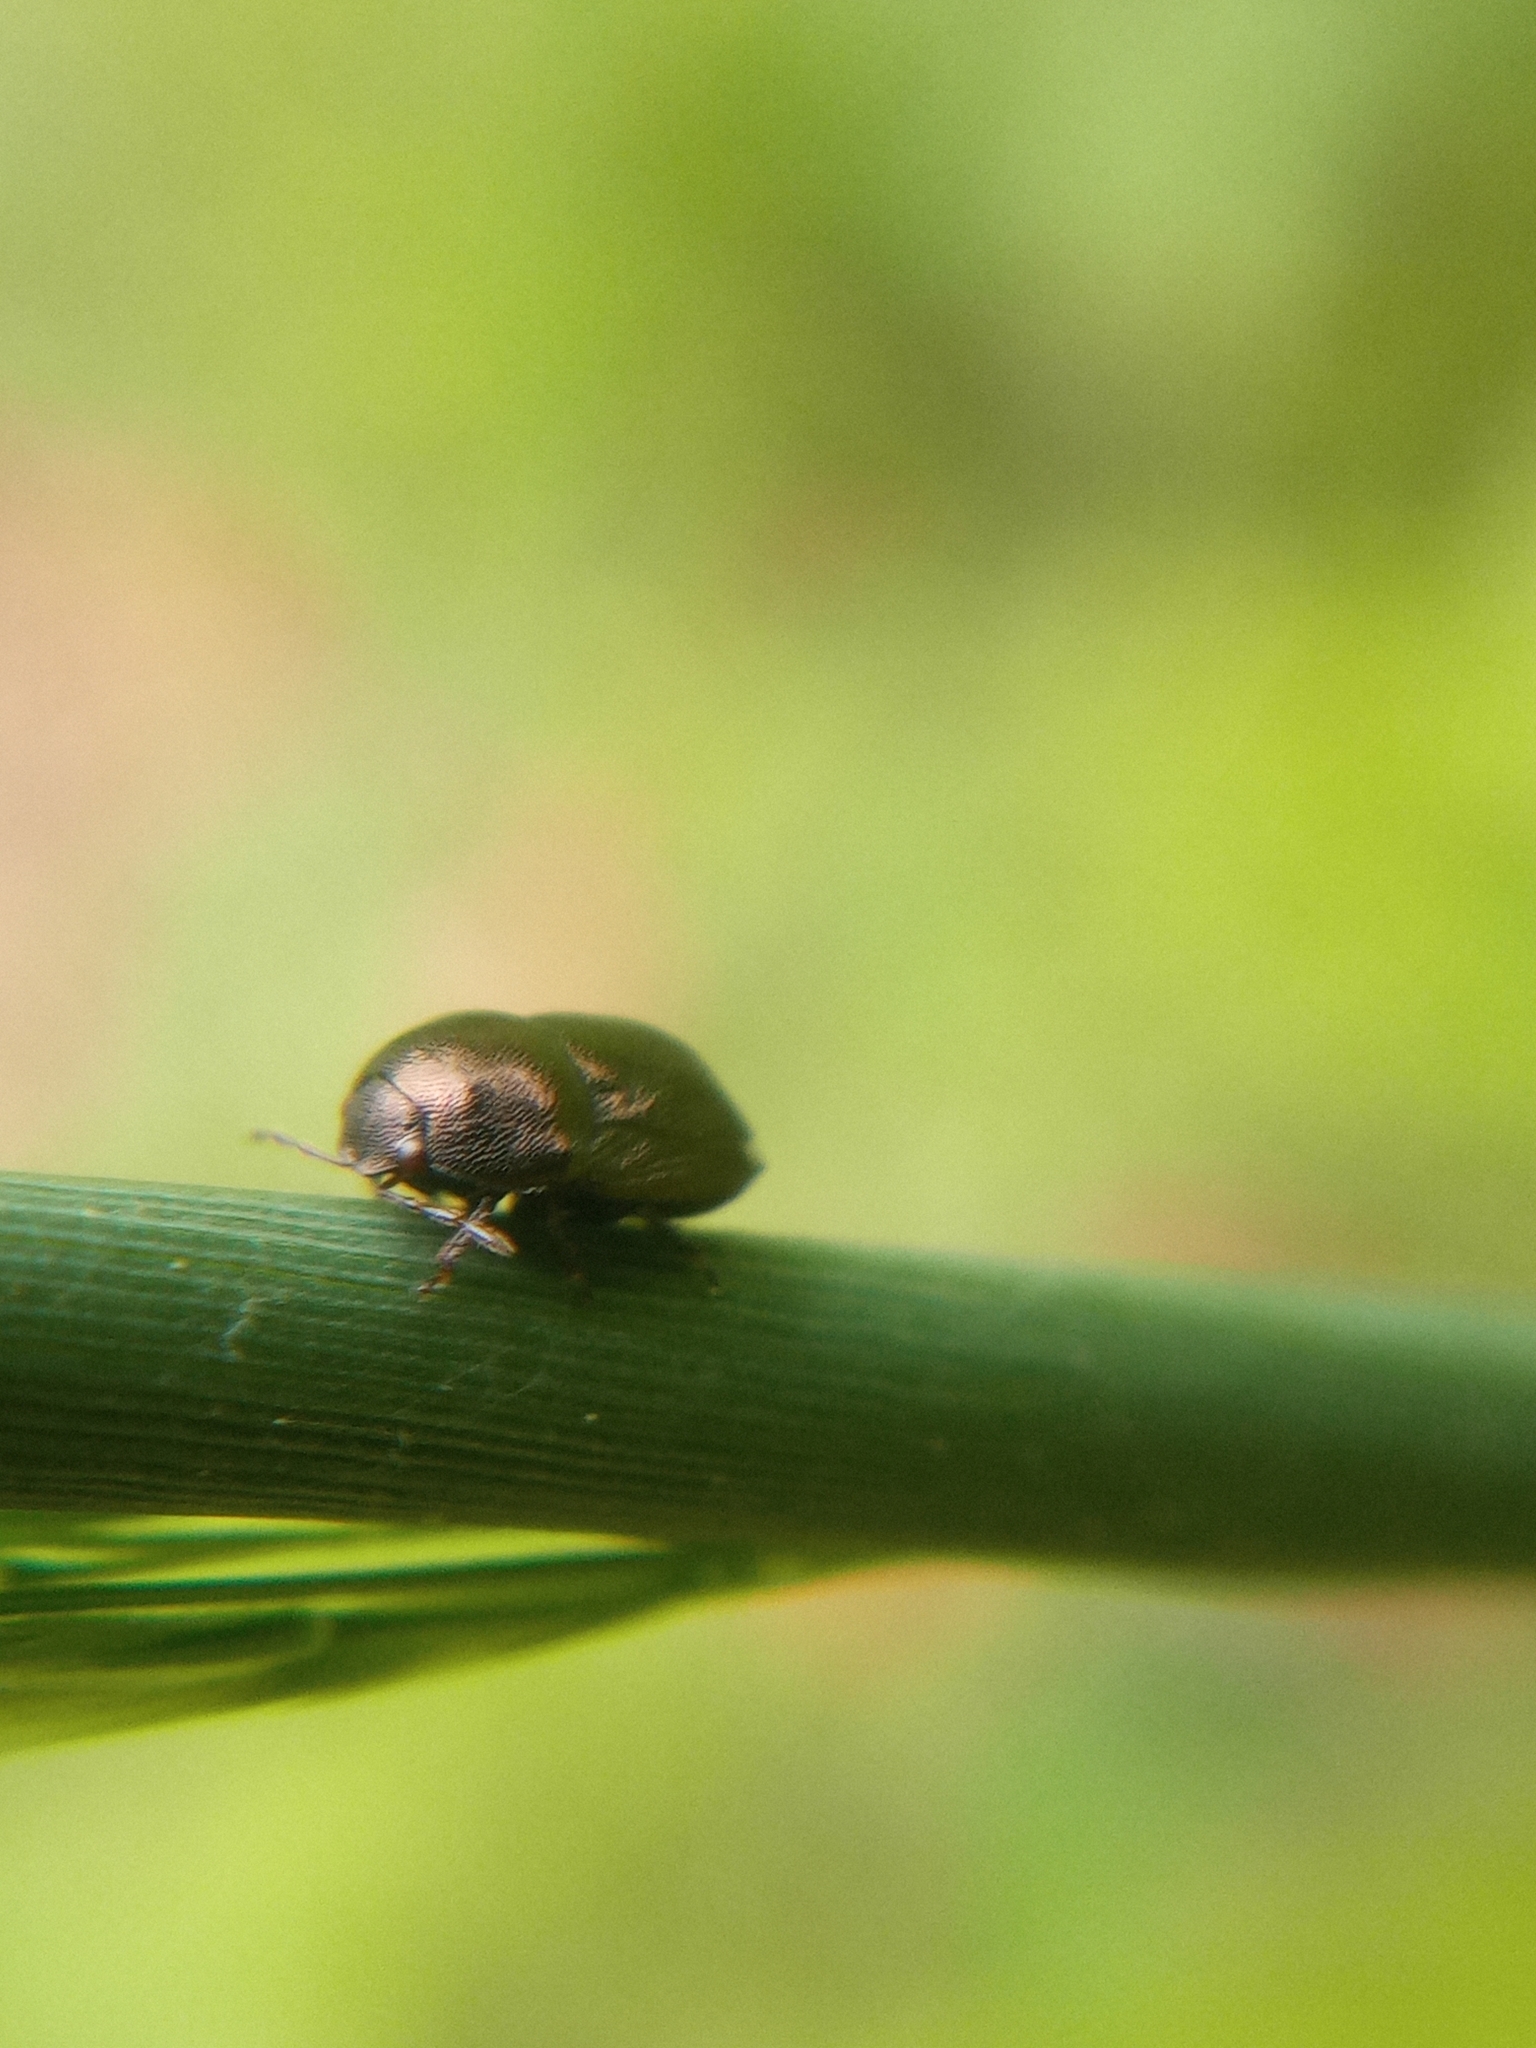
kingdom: Animalia
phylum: Arthropoda
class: Insecta
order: Hemiptera
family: Thyreocoridae
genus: Thyreocoris
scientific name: Thyreocoris scarabaeoides
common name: Negro bug
